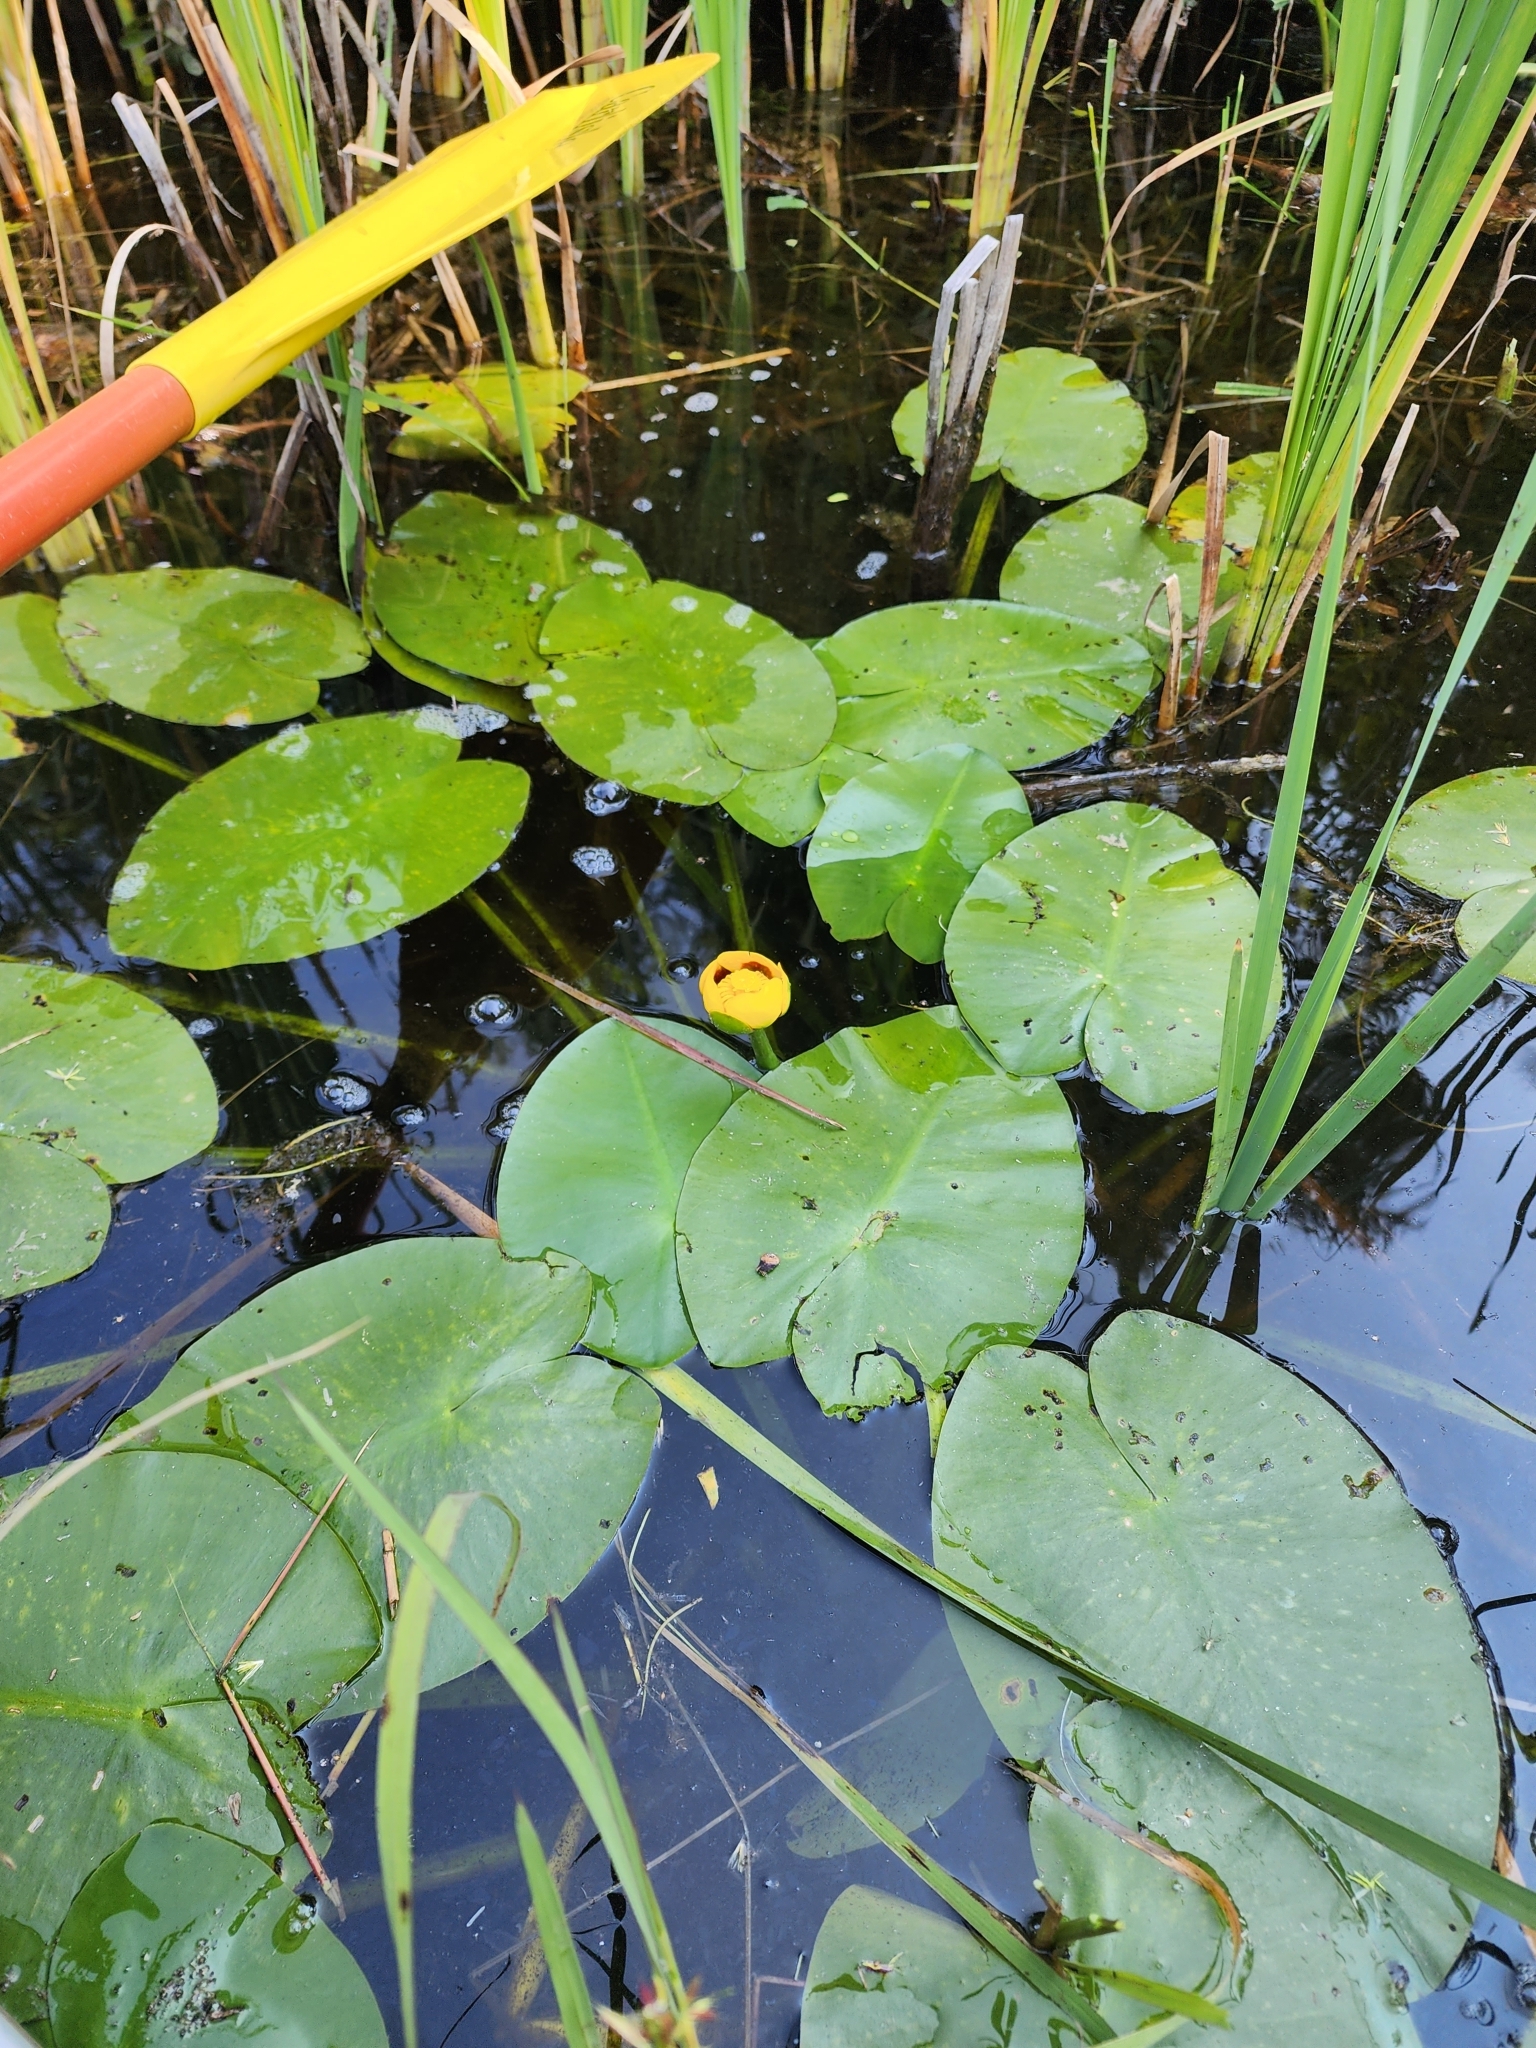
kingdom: Plantae
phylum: Tracheophyta
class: Magnoliopsida
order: Nymphaeales
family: Nymphaeaceae
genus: Nuphar
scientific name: Nuphar variegata
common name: Beaver-root
